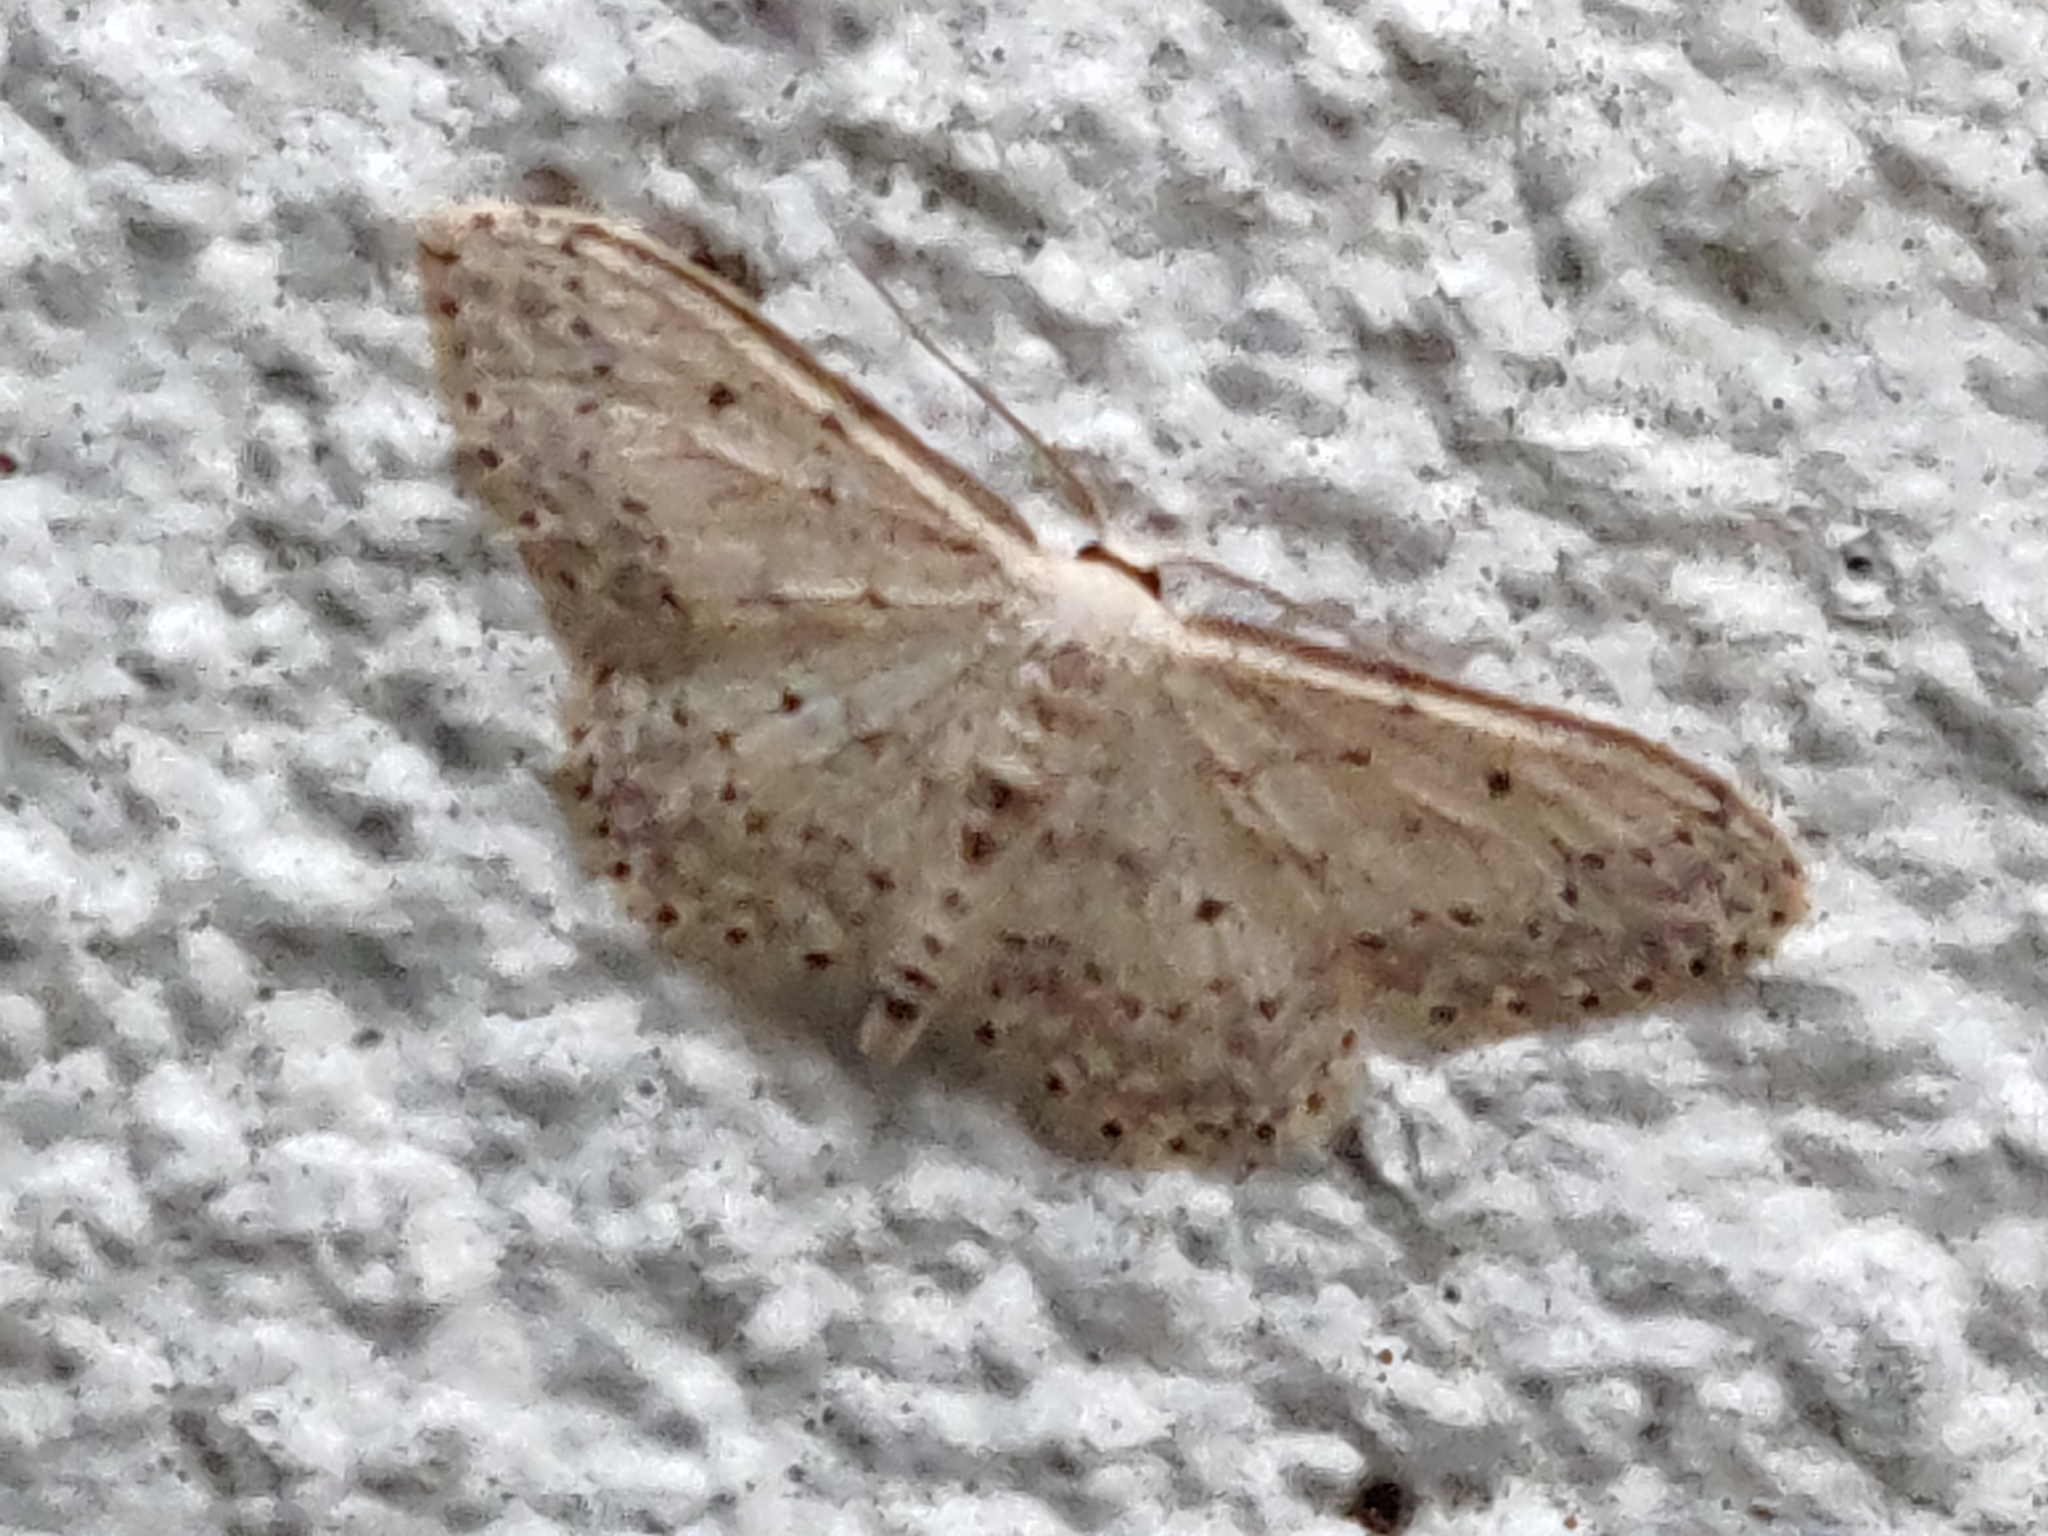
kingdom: Animalia
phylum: Arthropoda
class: Insecta
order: Lepidoptera
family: Geometridae
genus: Idaea
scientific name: Idaea seriata
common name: Small dusty wave
